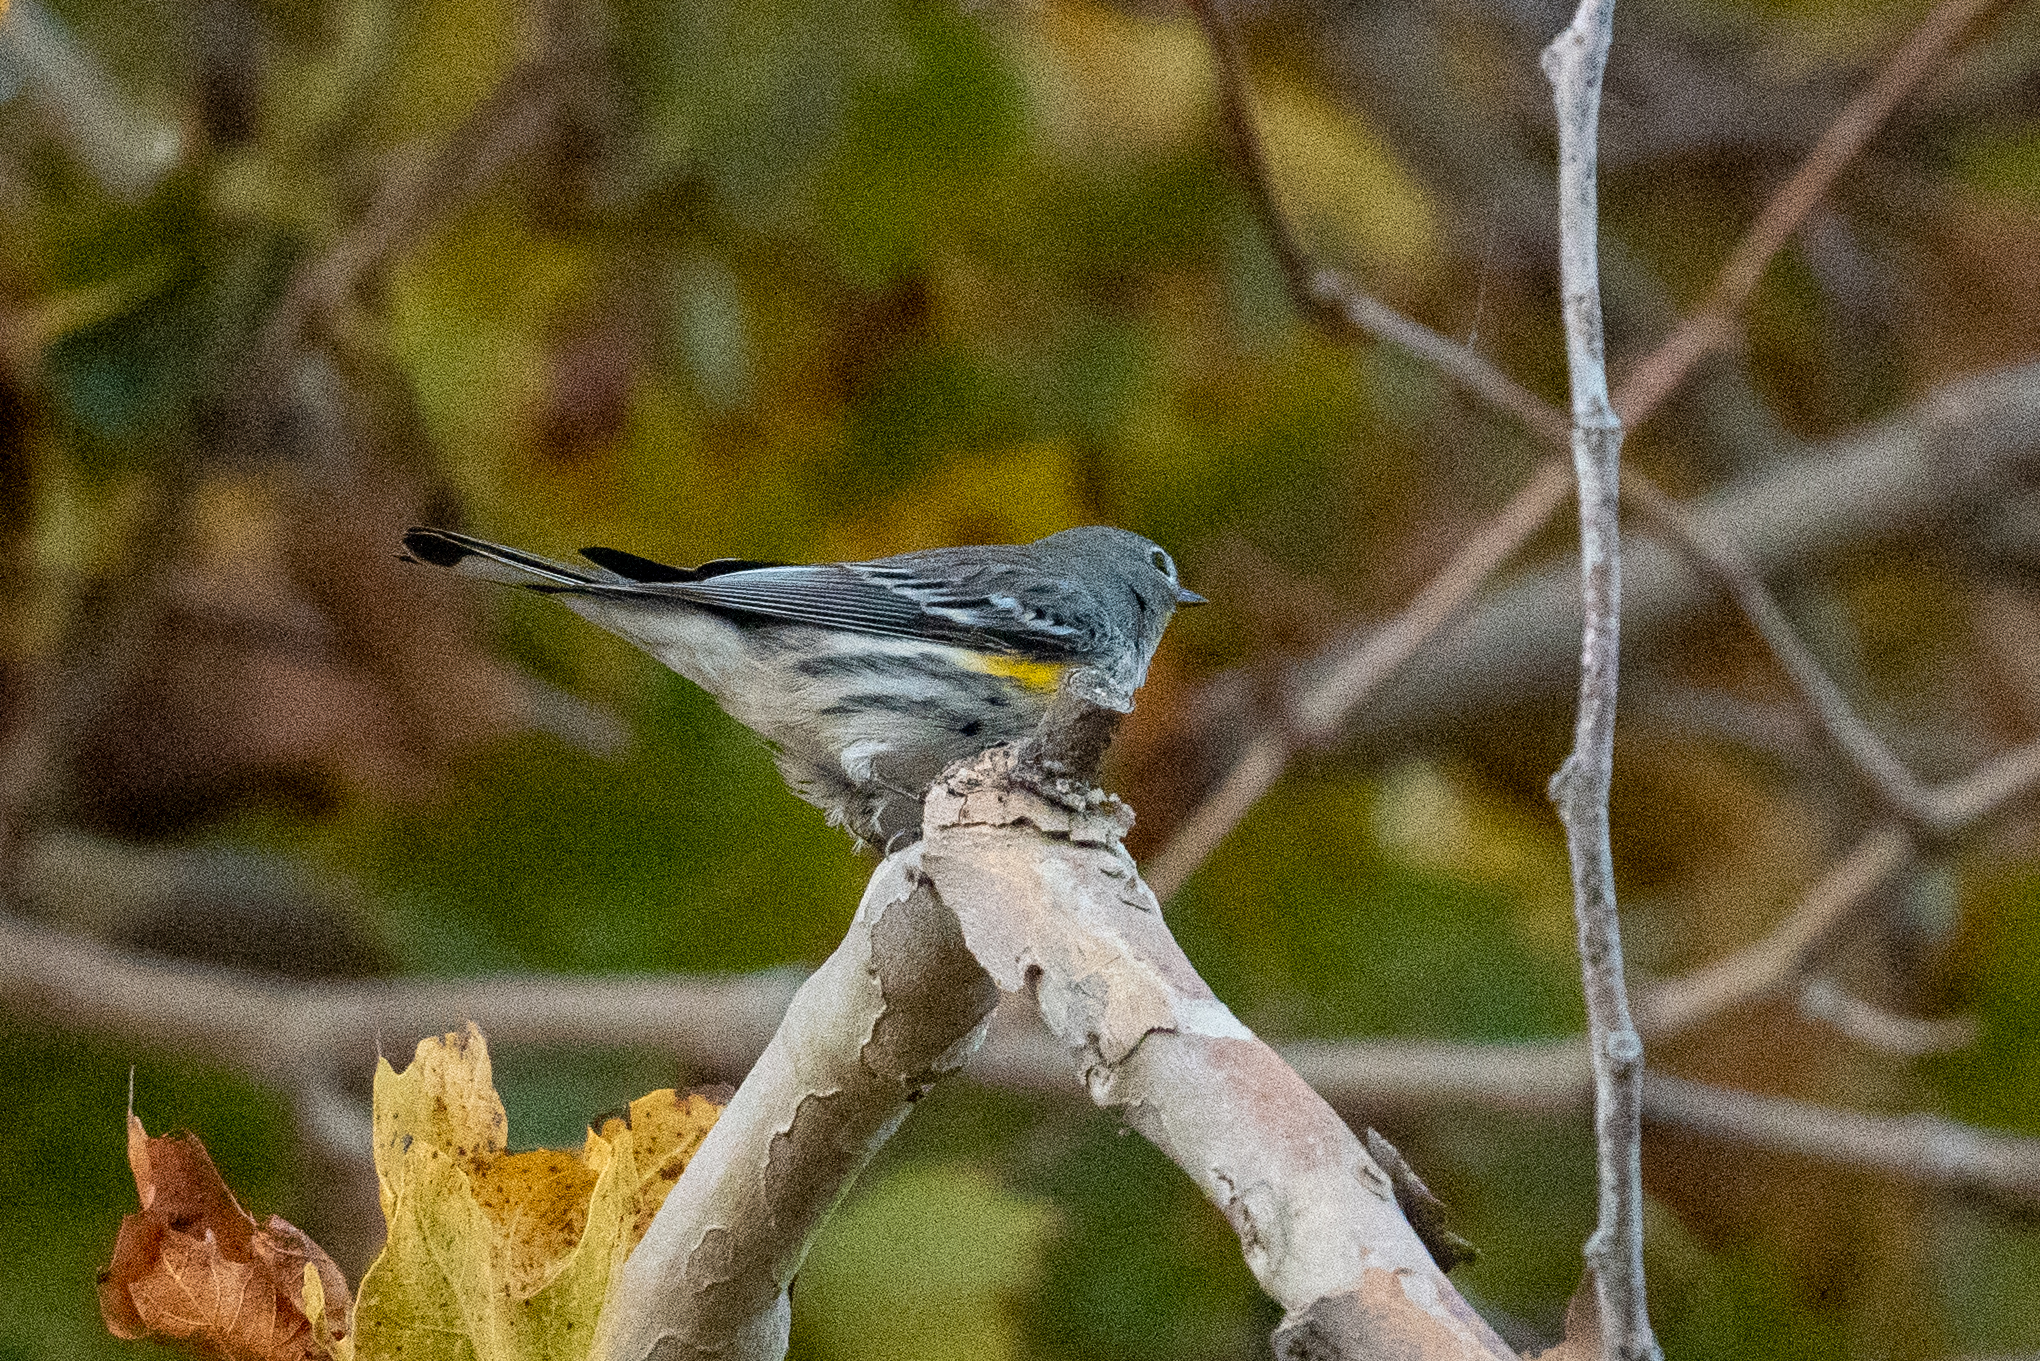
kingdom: Animalia
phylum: Chordata
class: Aves
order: Passeriformes
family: Parulidae
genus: Setophaga
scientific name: Setophaga coronata
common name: Myrtle warbler
